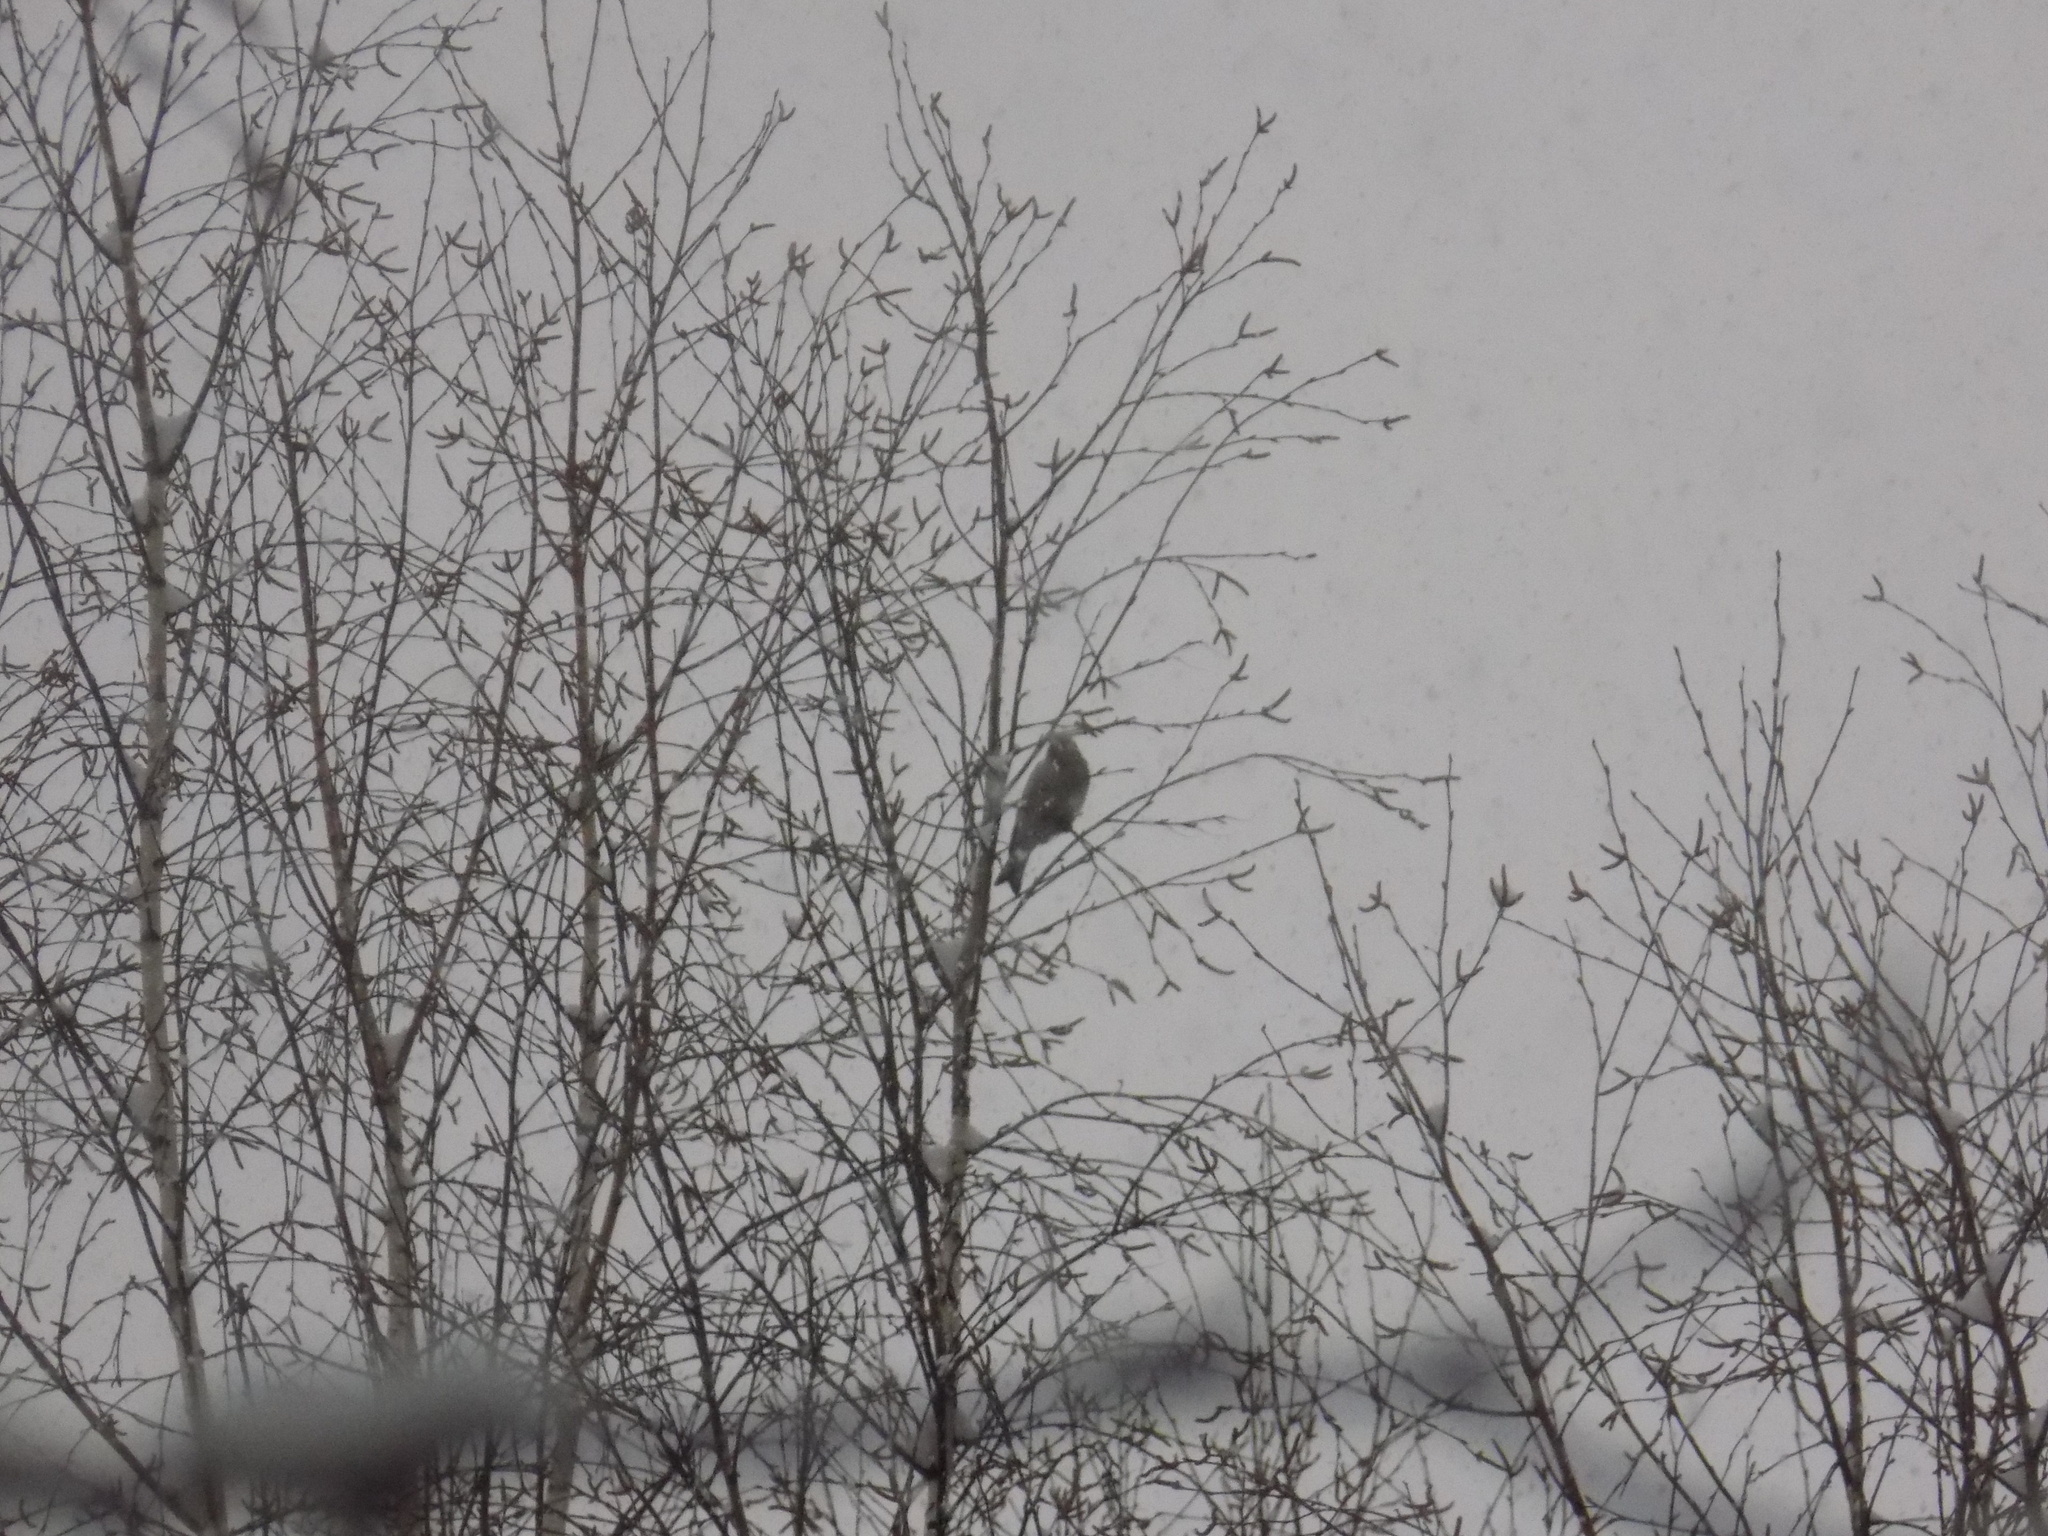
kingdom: Animalia
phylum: Chordata
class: Aves
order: Passeriformes
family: Fringillidae
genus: Carduelis
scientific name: Carduelis carduelis
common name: European goldfinch
